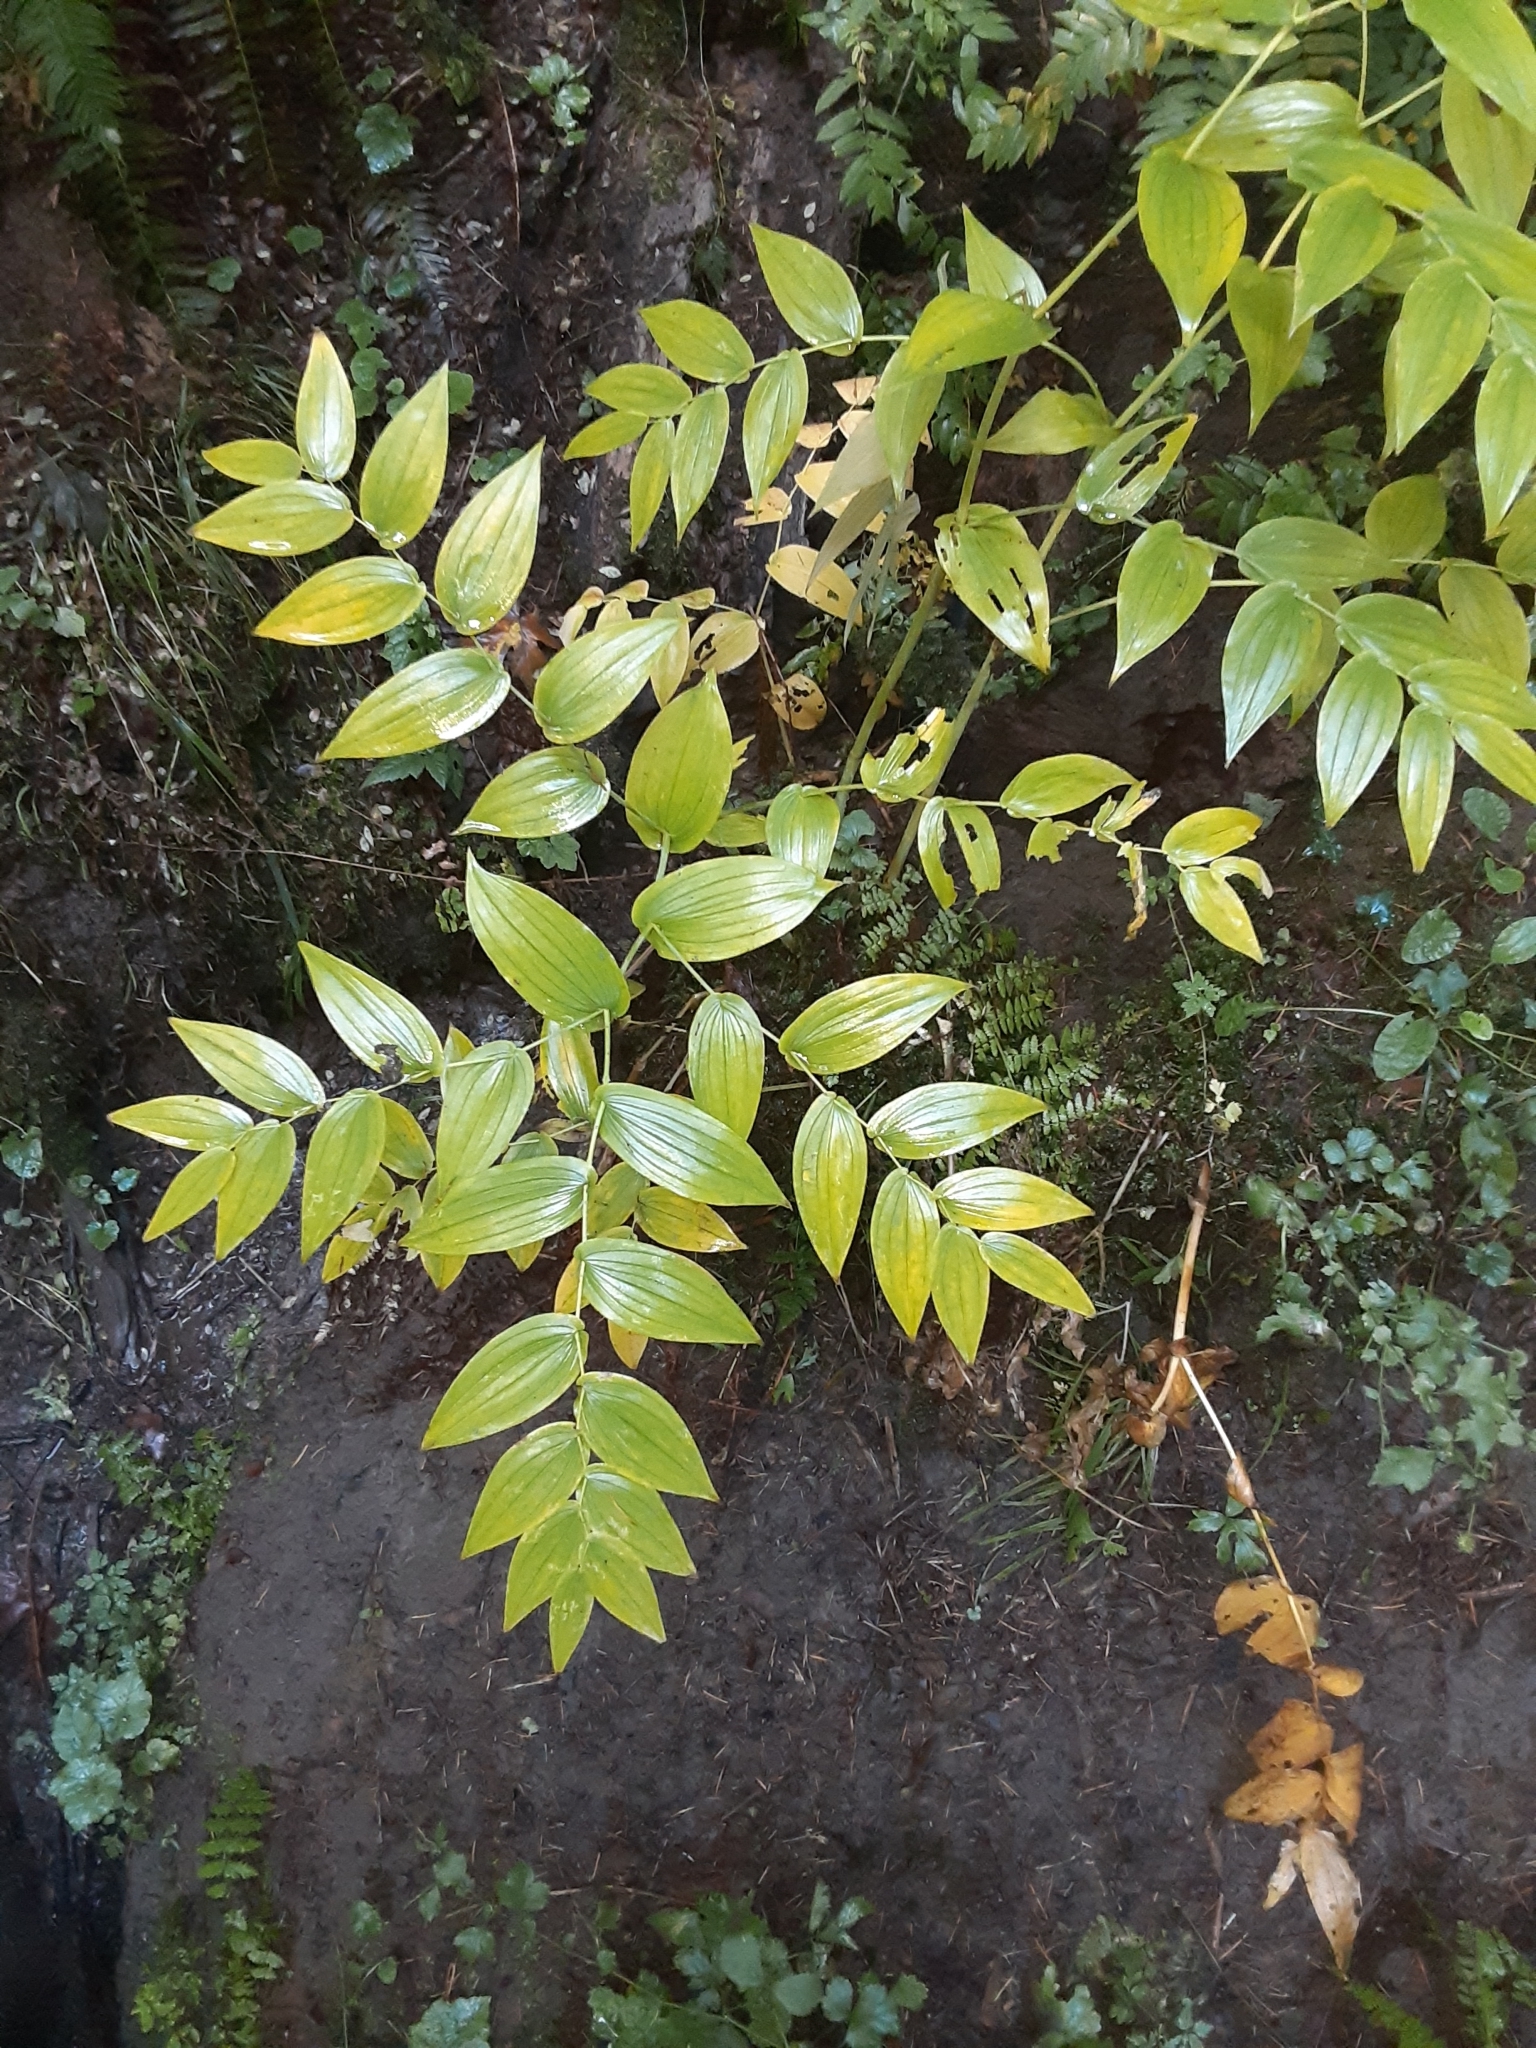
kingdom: Plantae
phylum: Tracheophyta
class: Liliopsida
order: Liliales
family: Liliaceae
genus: Streptopus
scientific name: Streptopus amplexifolius
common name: Clasp twisted stalk
